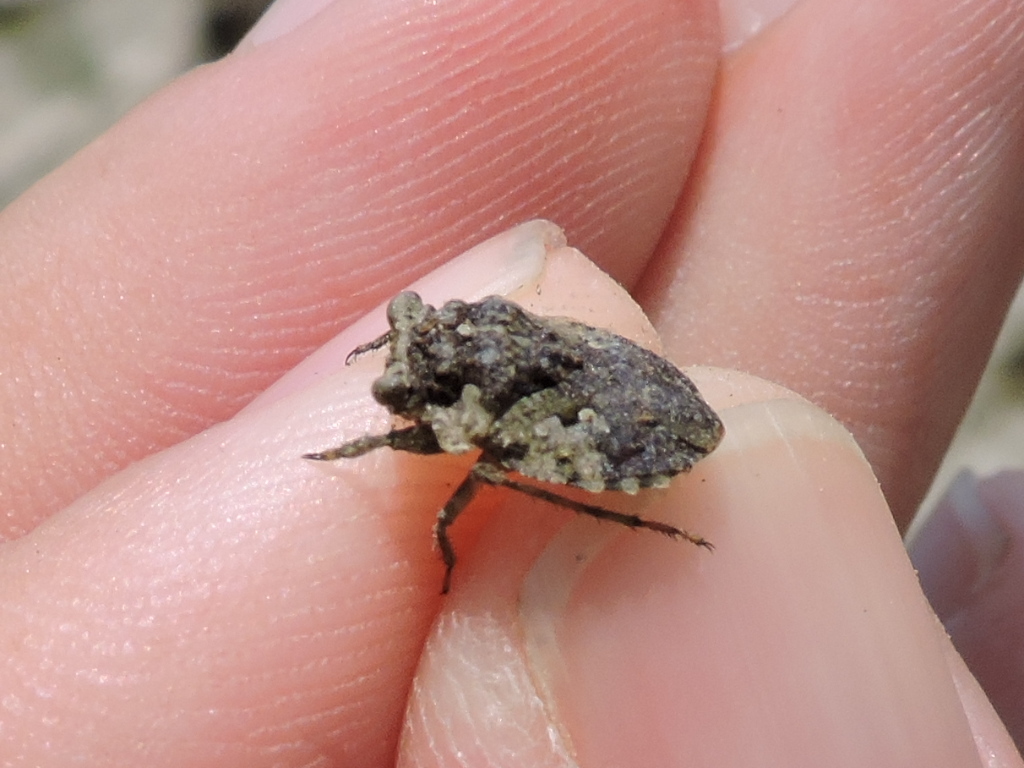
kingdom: Animalia
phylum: Arthropoda
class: Insecta
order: Hemiptera
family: Gelastocoridae
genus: Gelastocoris
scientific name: Gelastocoris oculatus
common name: Toad bug
